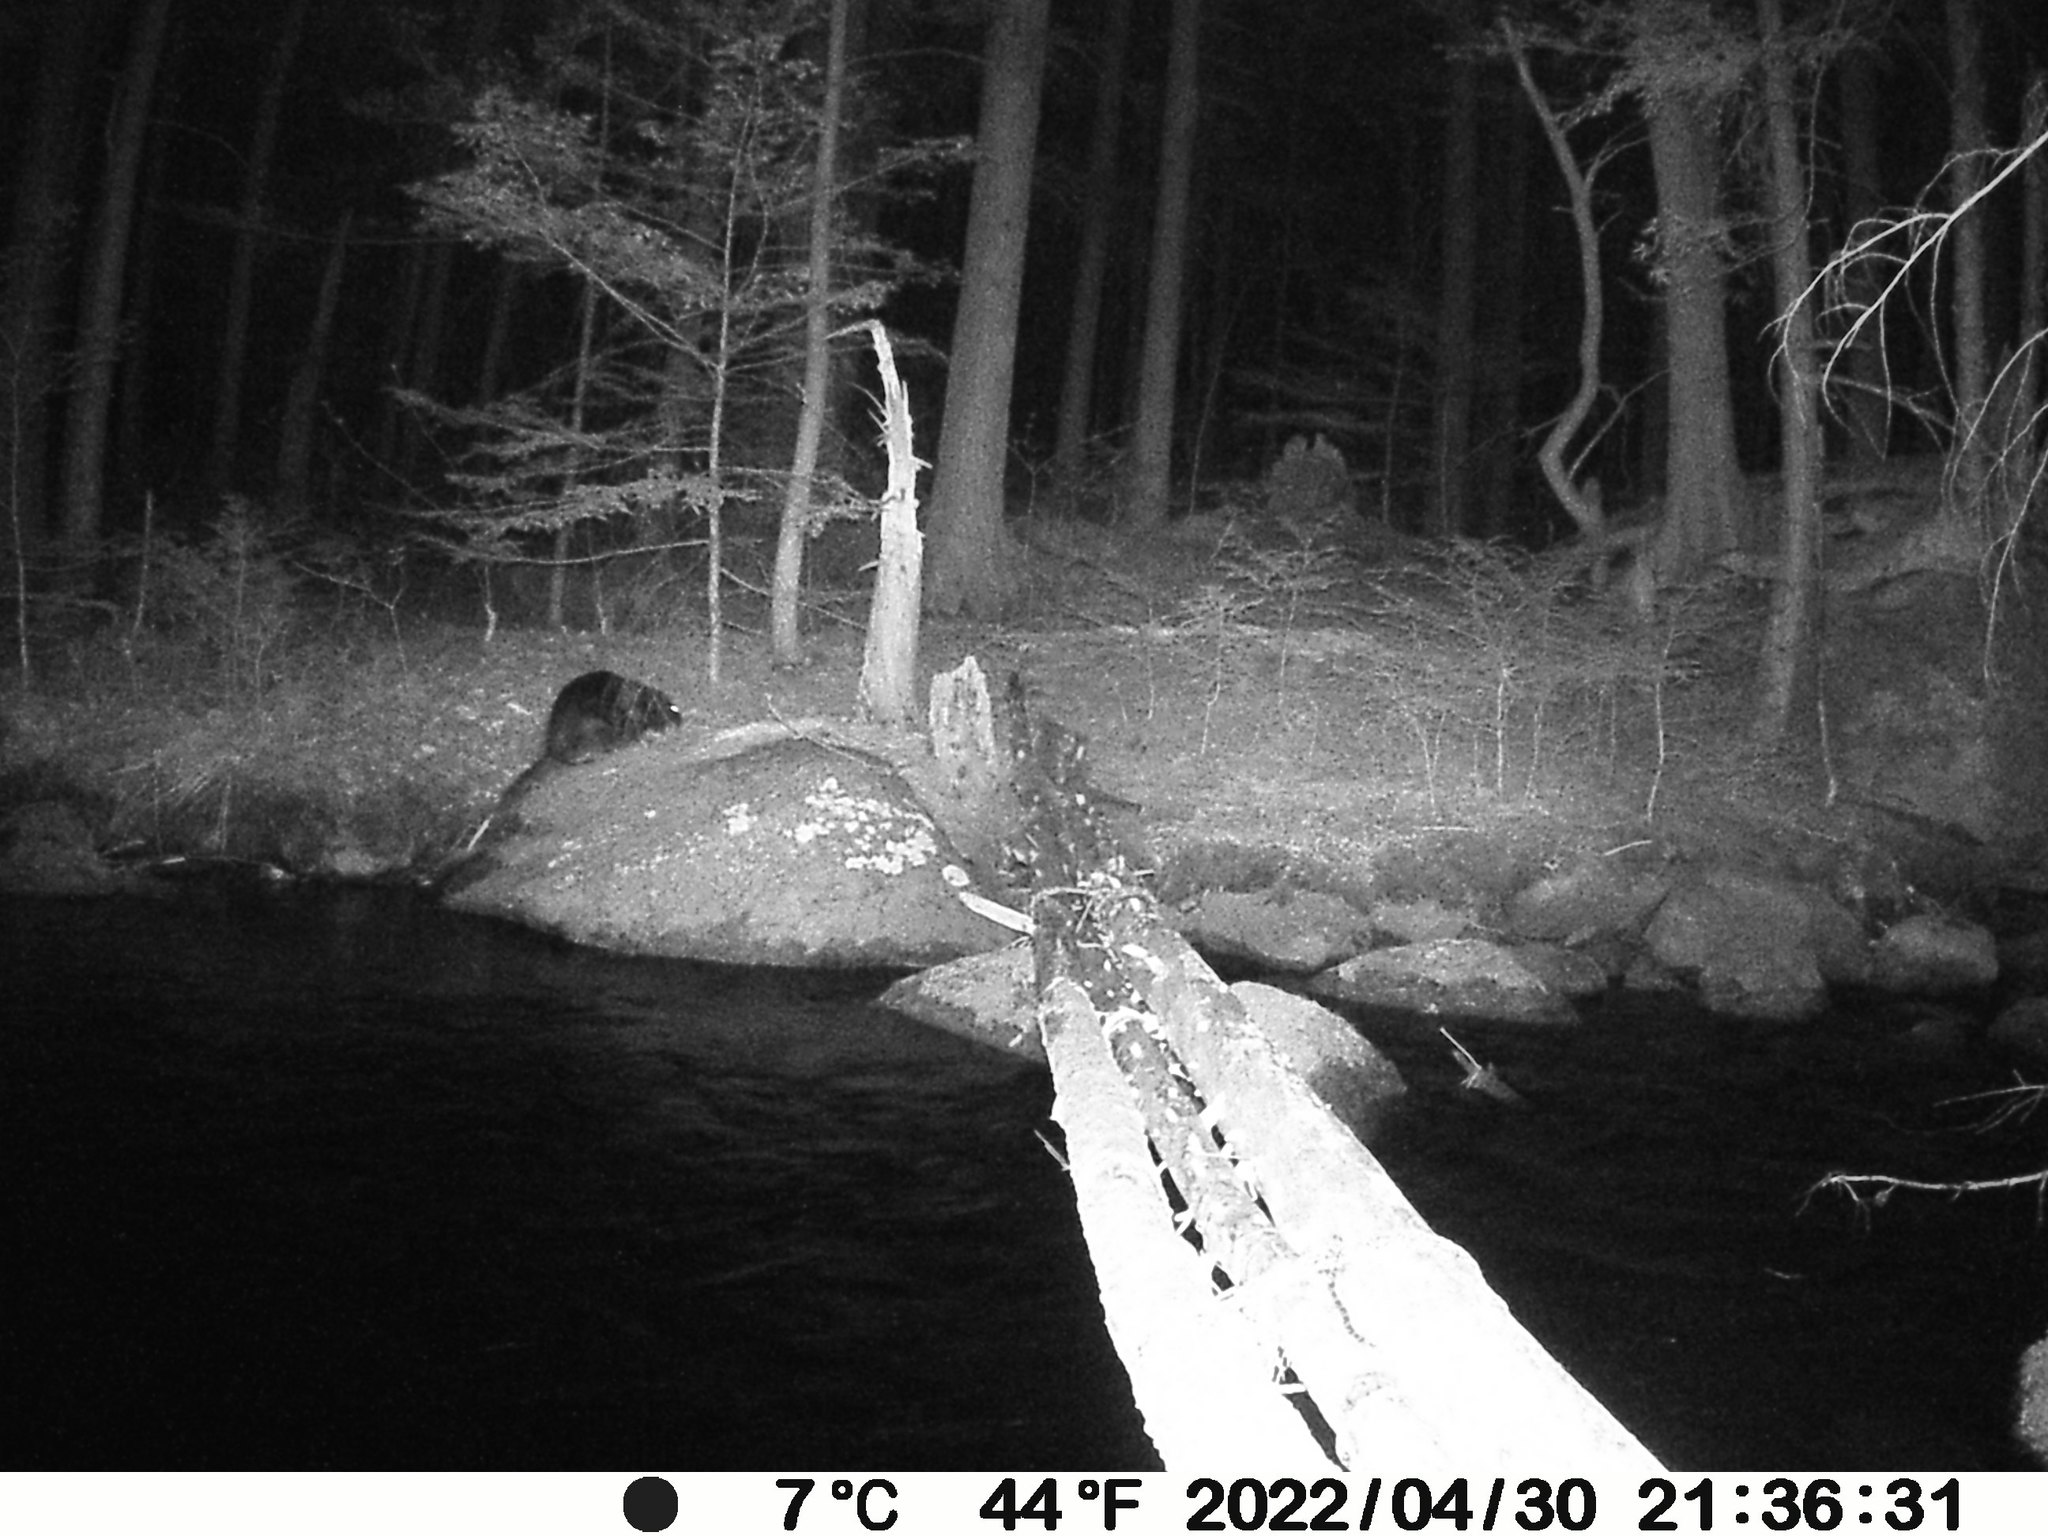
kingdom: Animalia
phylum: Chordata
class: Mammalia
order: Rodentia
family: Castoridae
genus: Castor
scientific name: Castor canadensis
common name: American beaver
